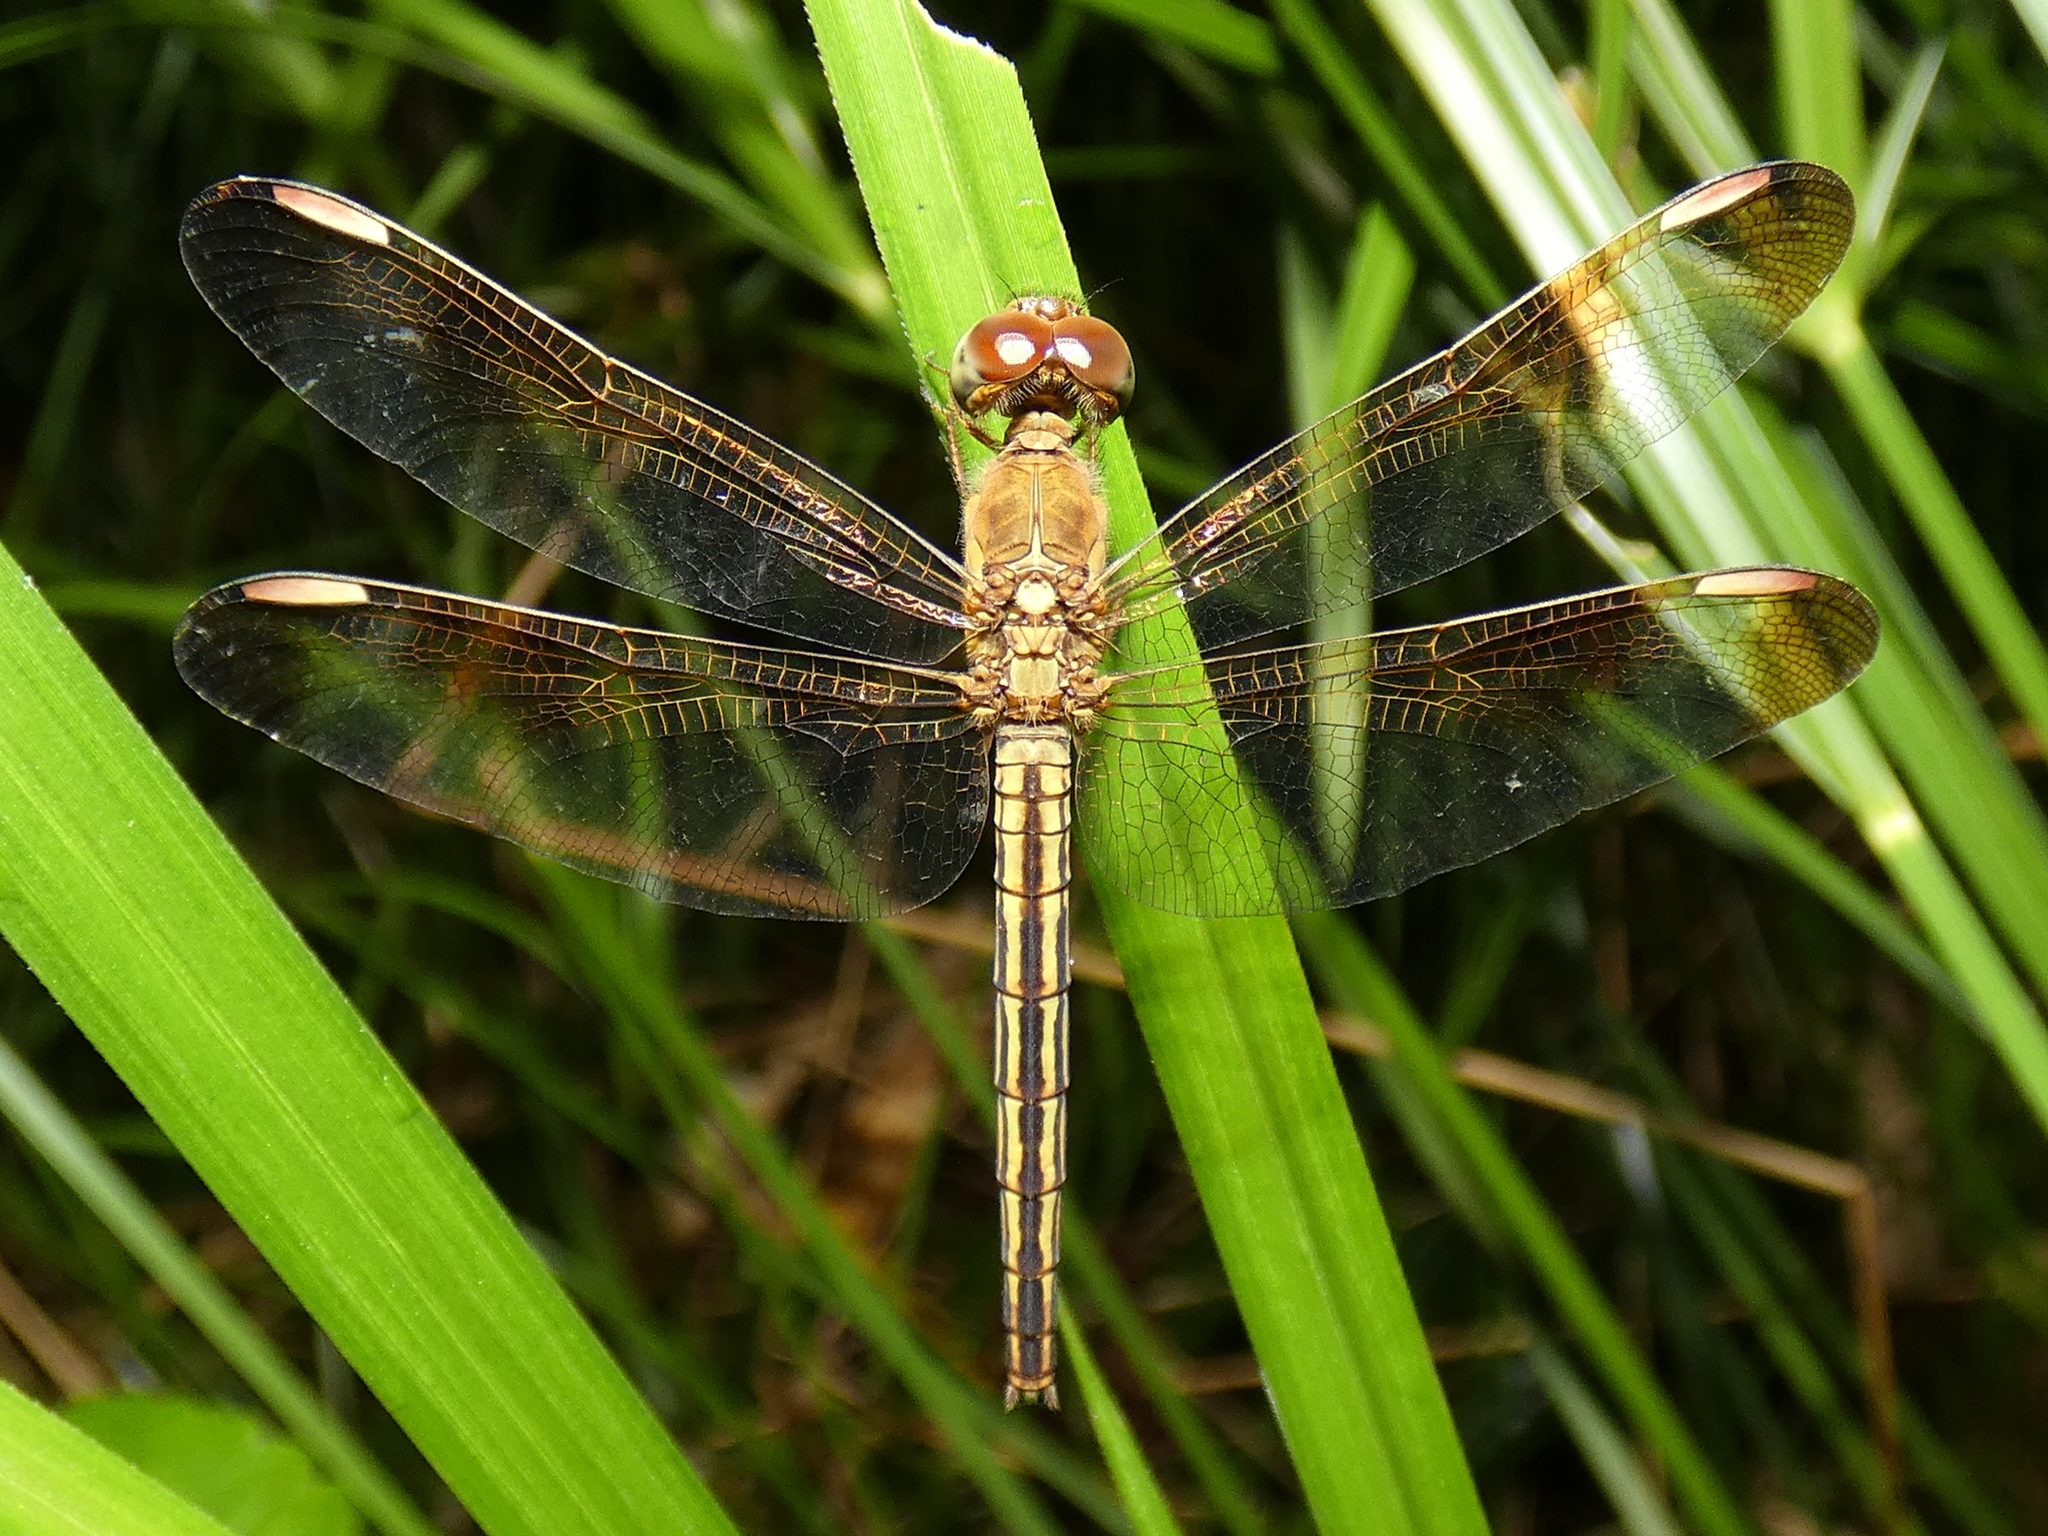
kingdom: Animalia
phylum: Arthropoda
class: Insecta
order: Odonata
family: Libellulidae
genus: Neurothemis
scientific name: Neurothemis stigmatizans
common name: Painted grasshawk
